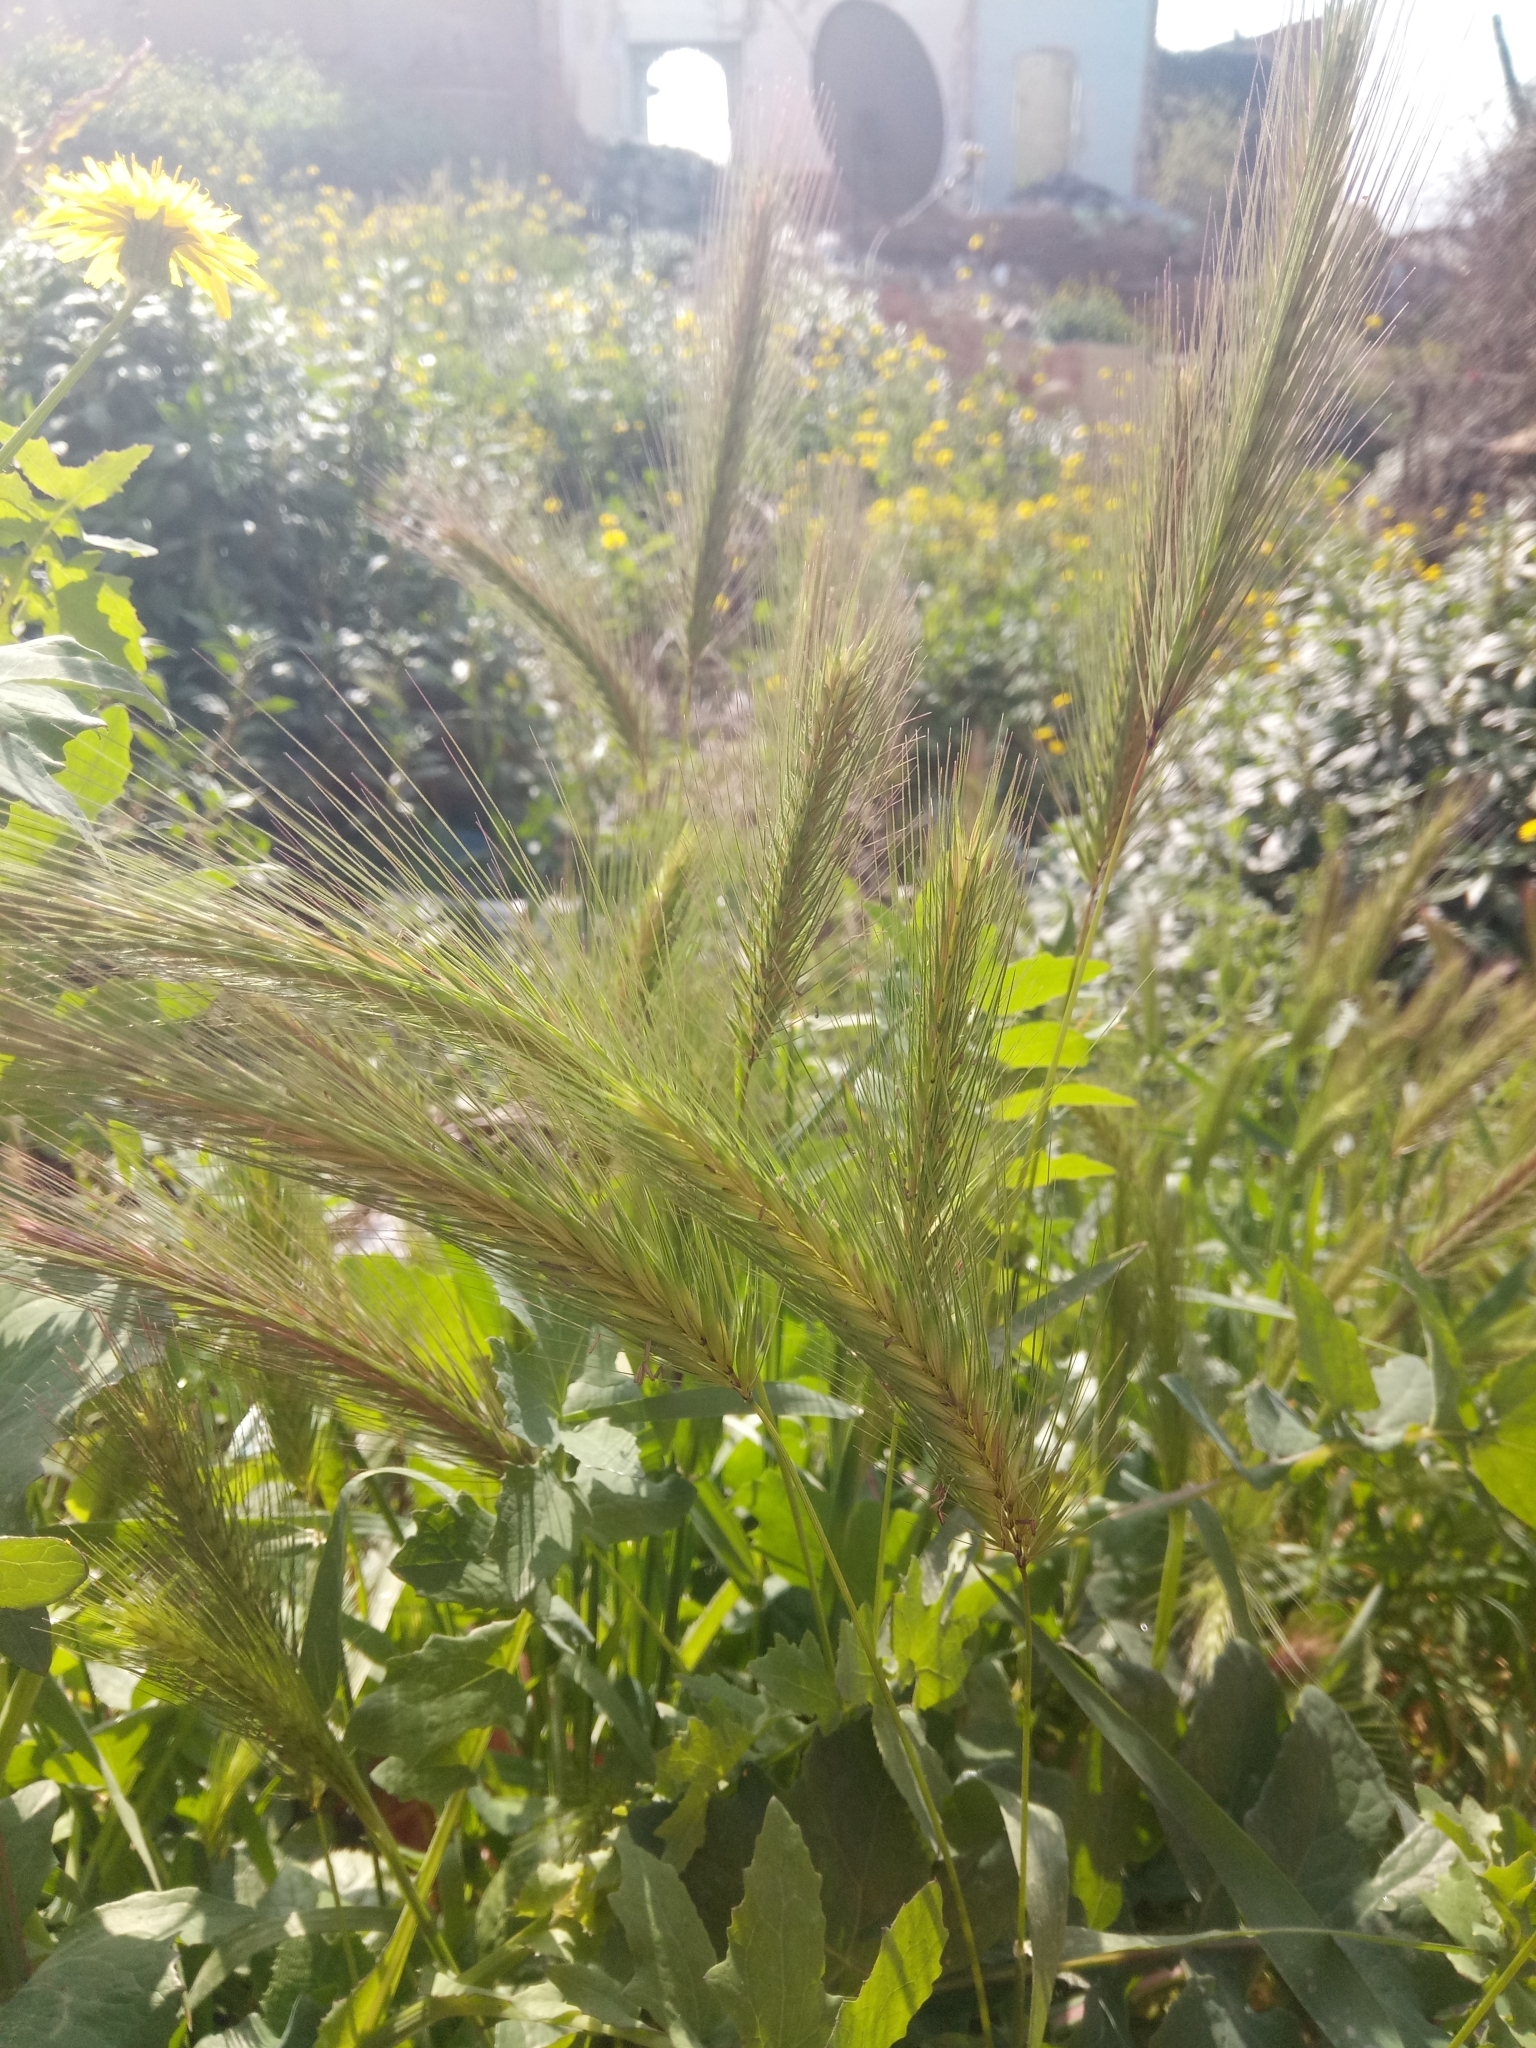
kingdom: Plantae
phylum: Tracheophyta
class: Liliopsida
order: Poales
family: Poaceae
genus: Hordeum
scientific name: Hordeum murinum
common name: Wall barley
